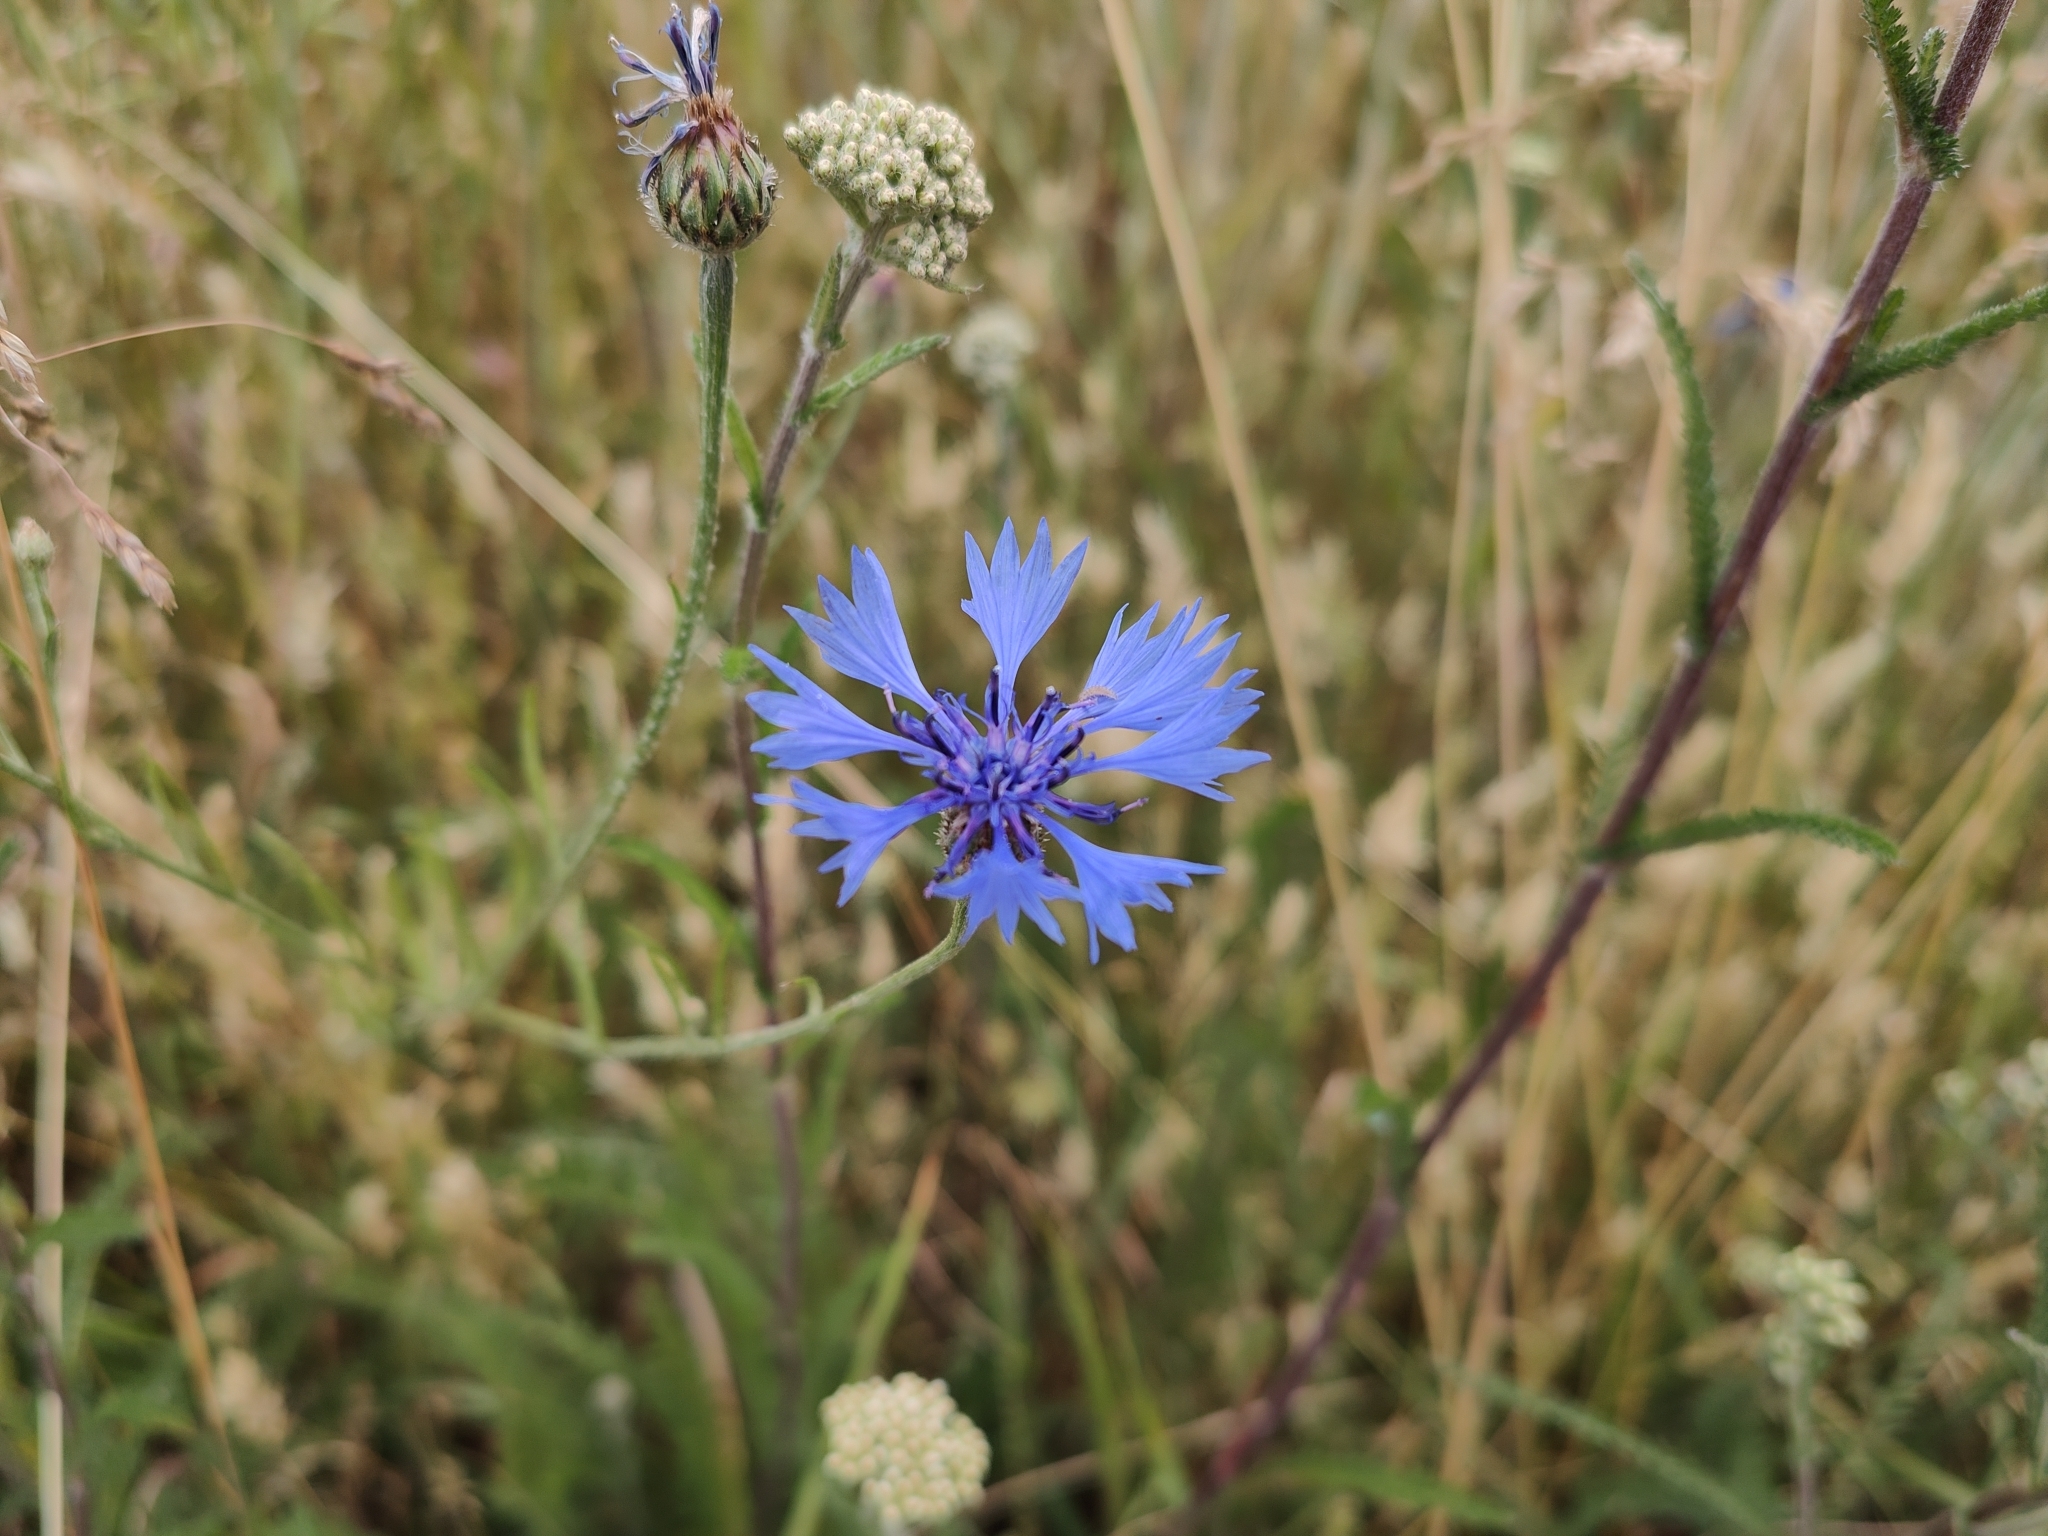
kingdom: Plantae
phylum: Tracheophyta
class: Magnoliopsida
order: Asterales
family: Asteraceae
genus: Centaurea
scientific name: Centaurea cyanus
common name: Cornflower
